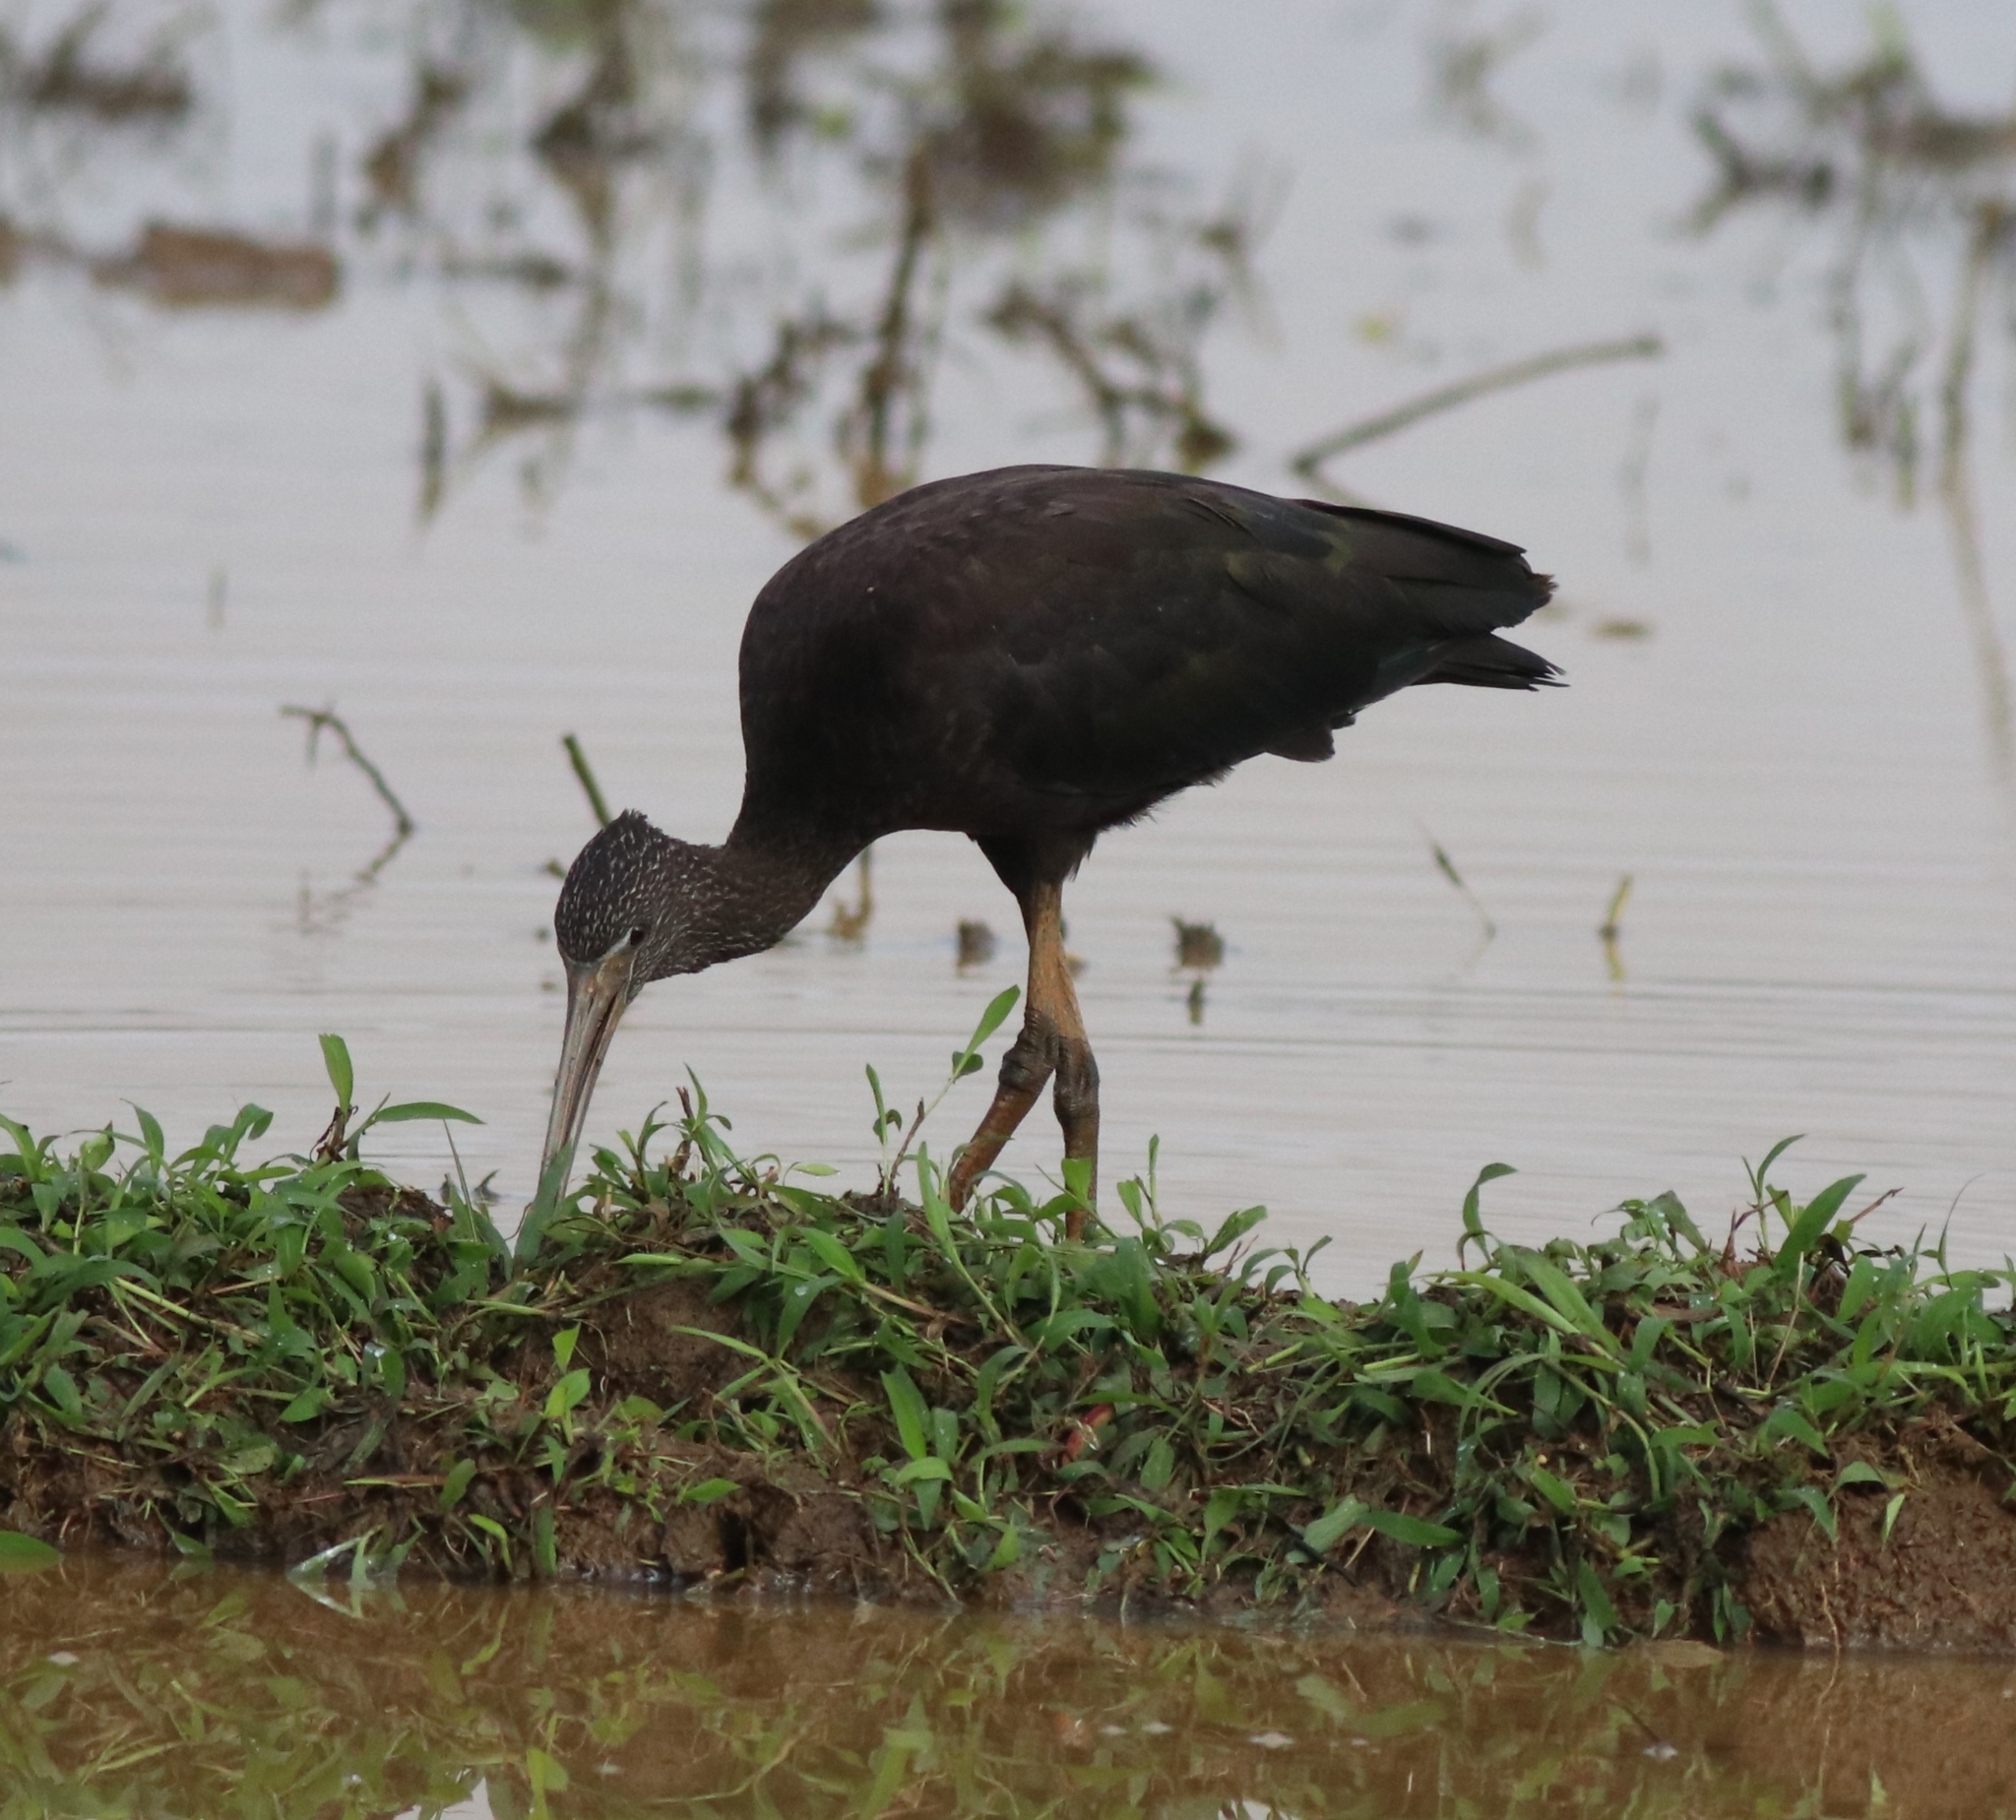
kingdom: Animalia
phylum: Chordata
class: Aves
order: Pelecaniformes
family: Threskiornithidae
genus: Plegadis
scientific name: Plegadis falcinellus
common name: Glossy ibis
